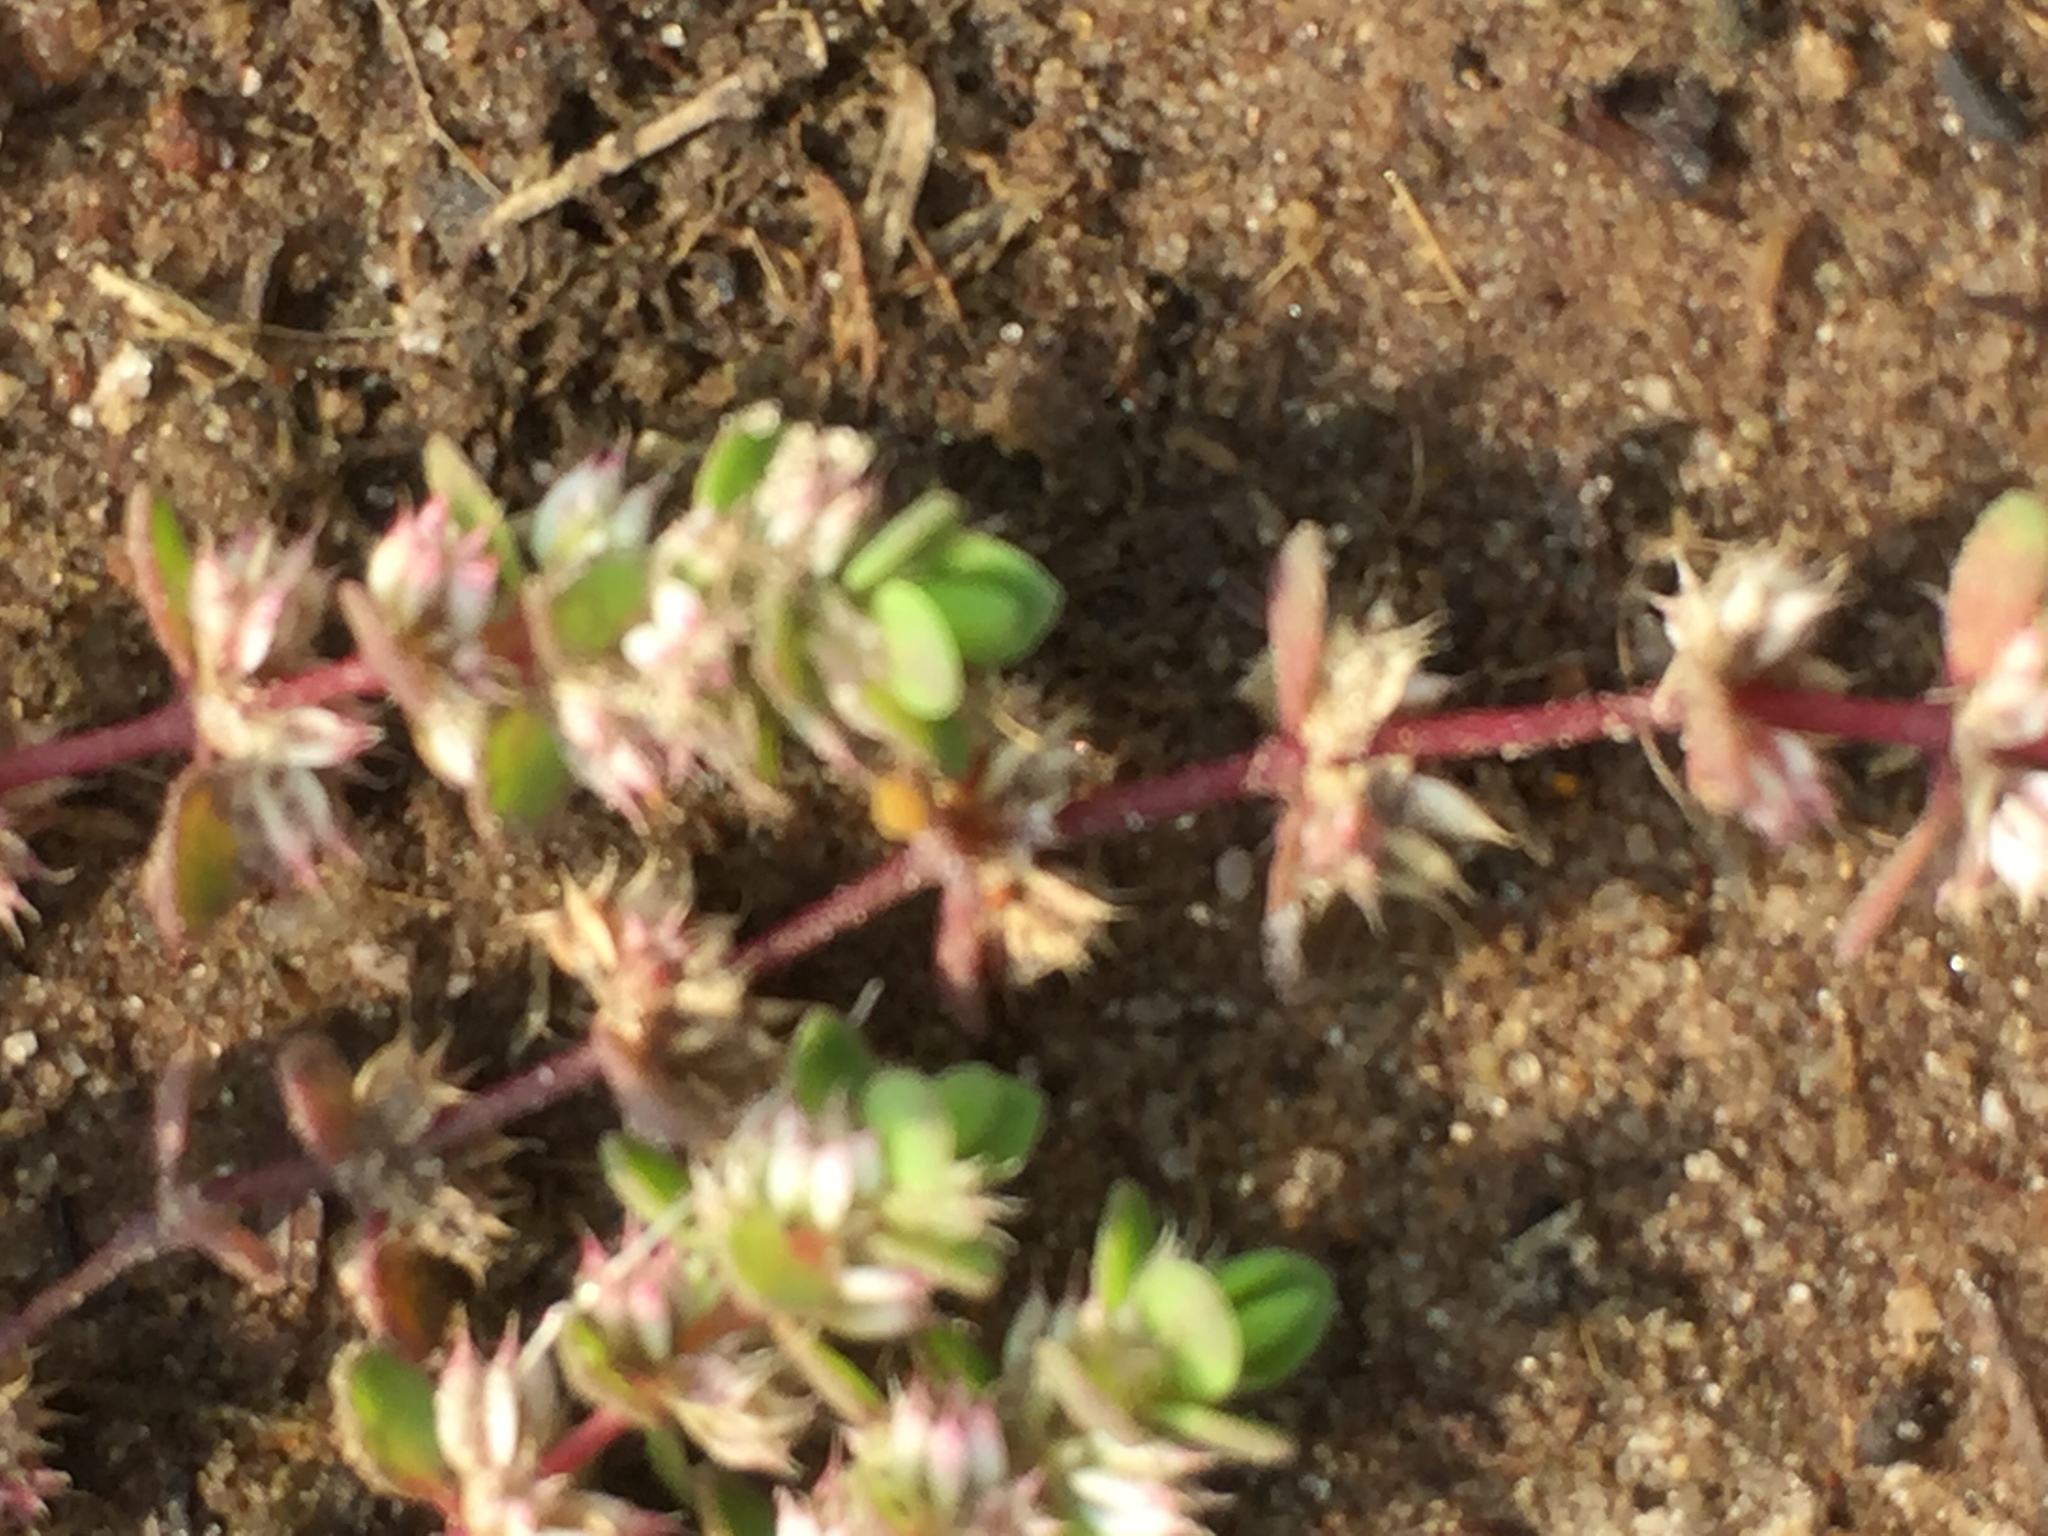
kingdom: Plantae
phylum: Tracheophyta
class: Magnoliopsida
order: Caryophyllales
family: Caryophyllaceae
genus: Illecebrum
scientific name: Illecebrum verticillatum
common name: Coral necklace
